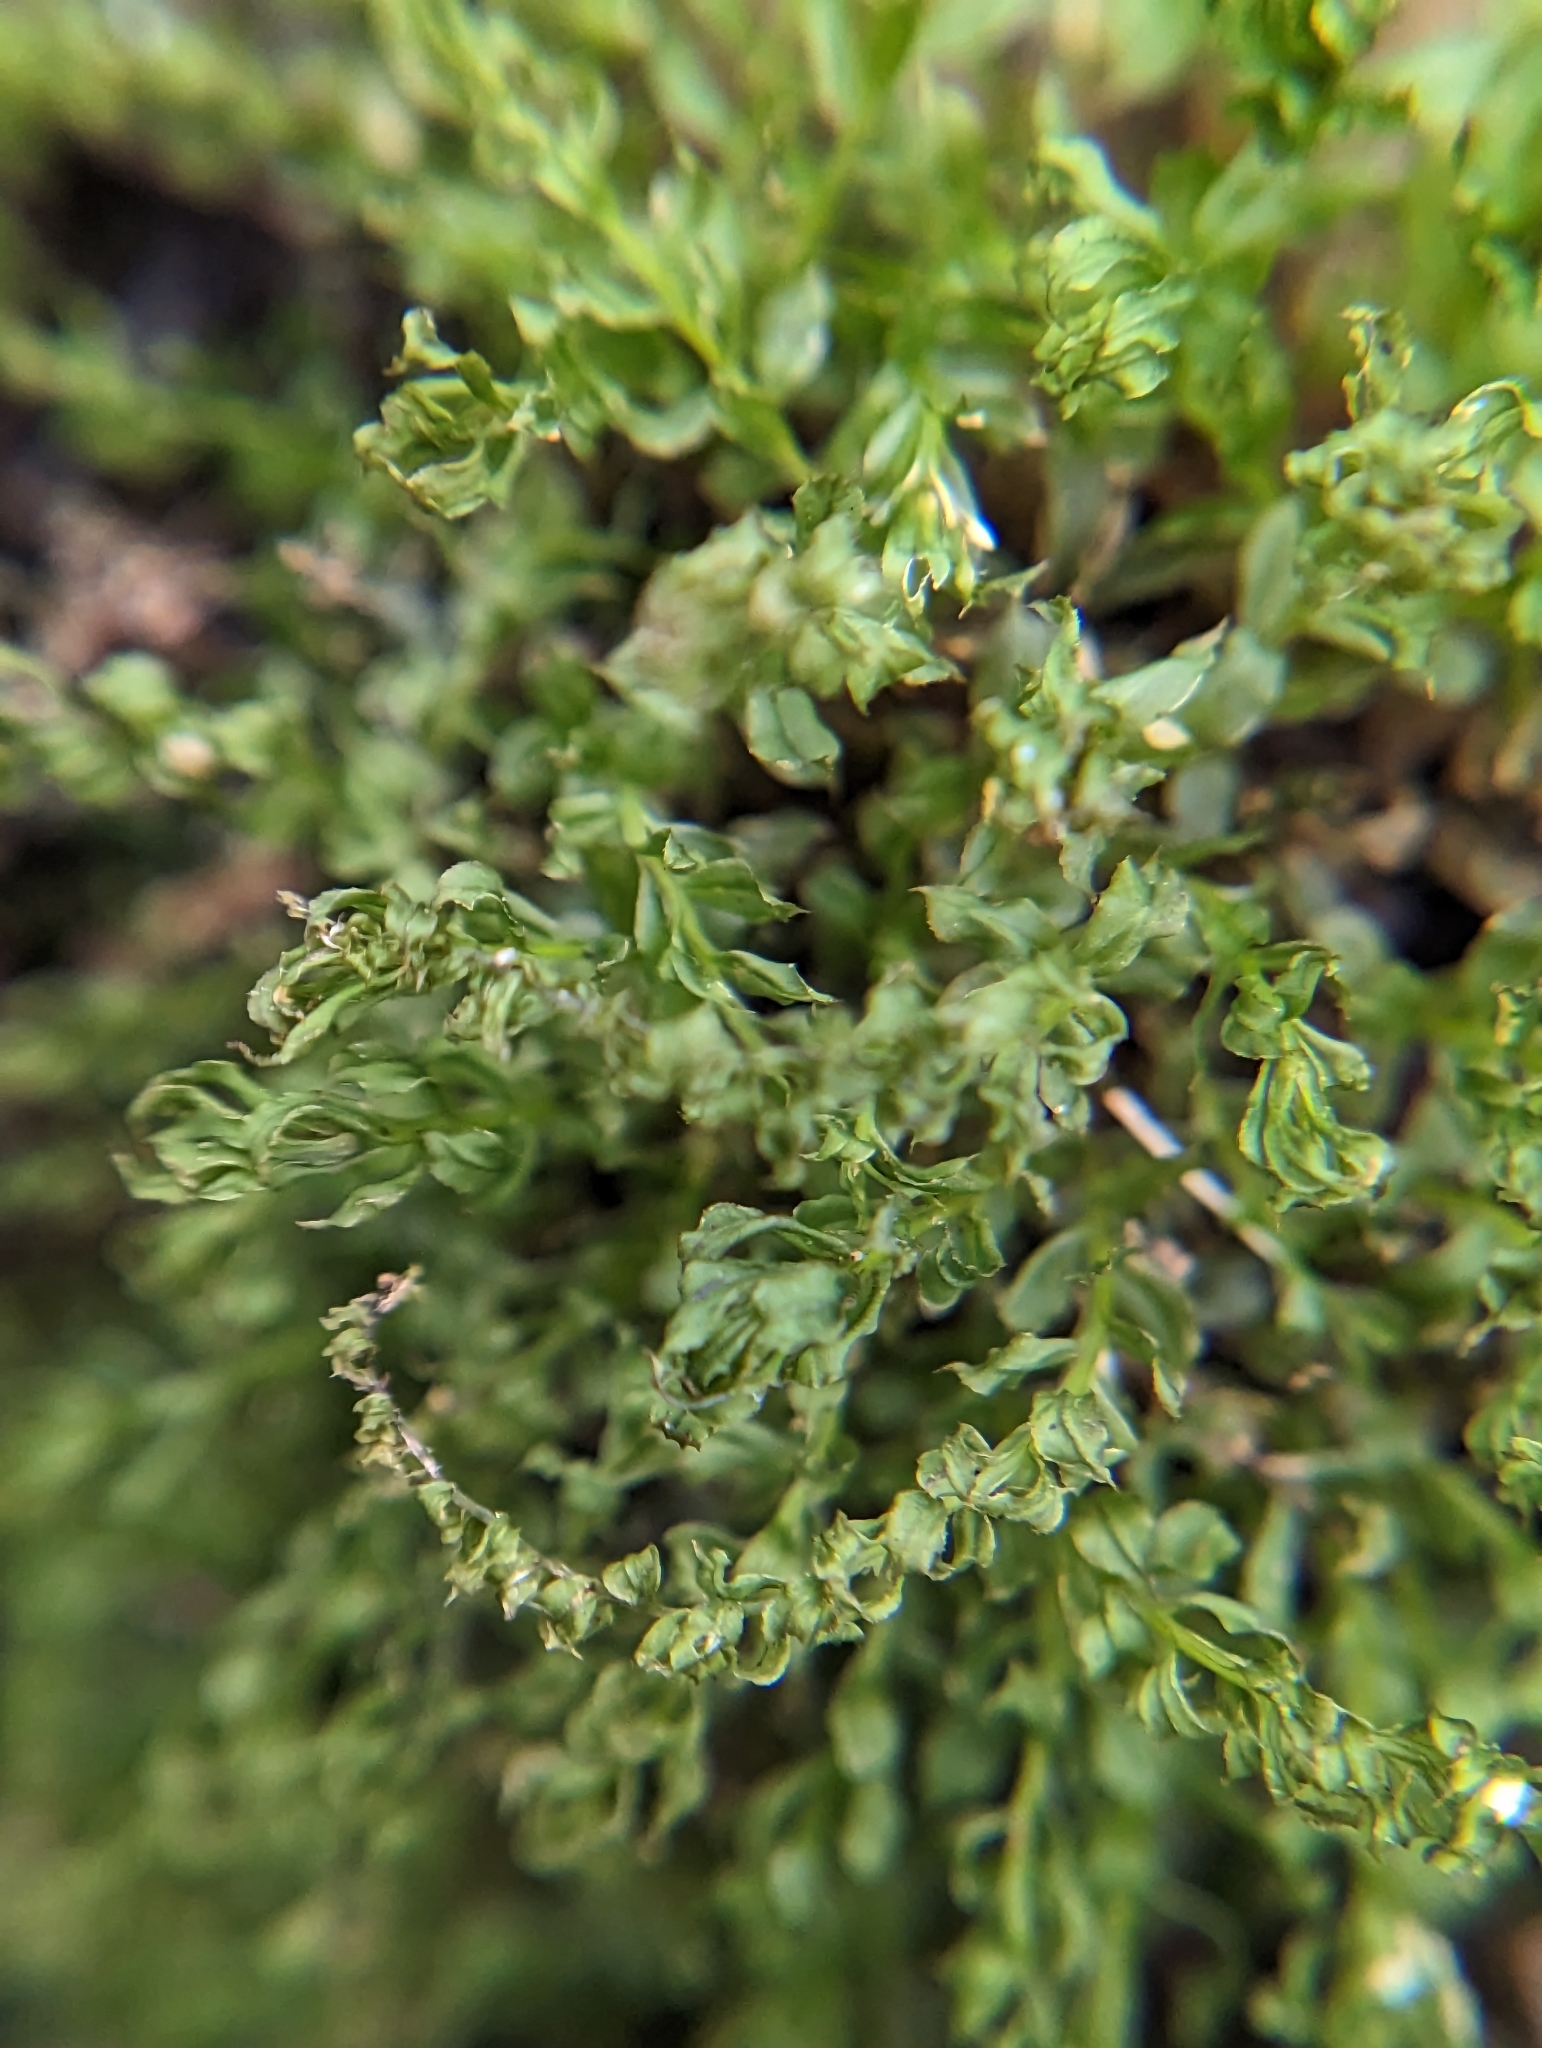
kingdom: Plantae
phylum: Bryophyta
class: Bryopsida
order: Bryales
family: Mniaceae
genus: Plagiomnium
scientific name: Plagiomnium cuspidatum
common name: Woodsy leafy moss
